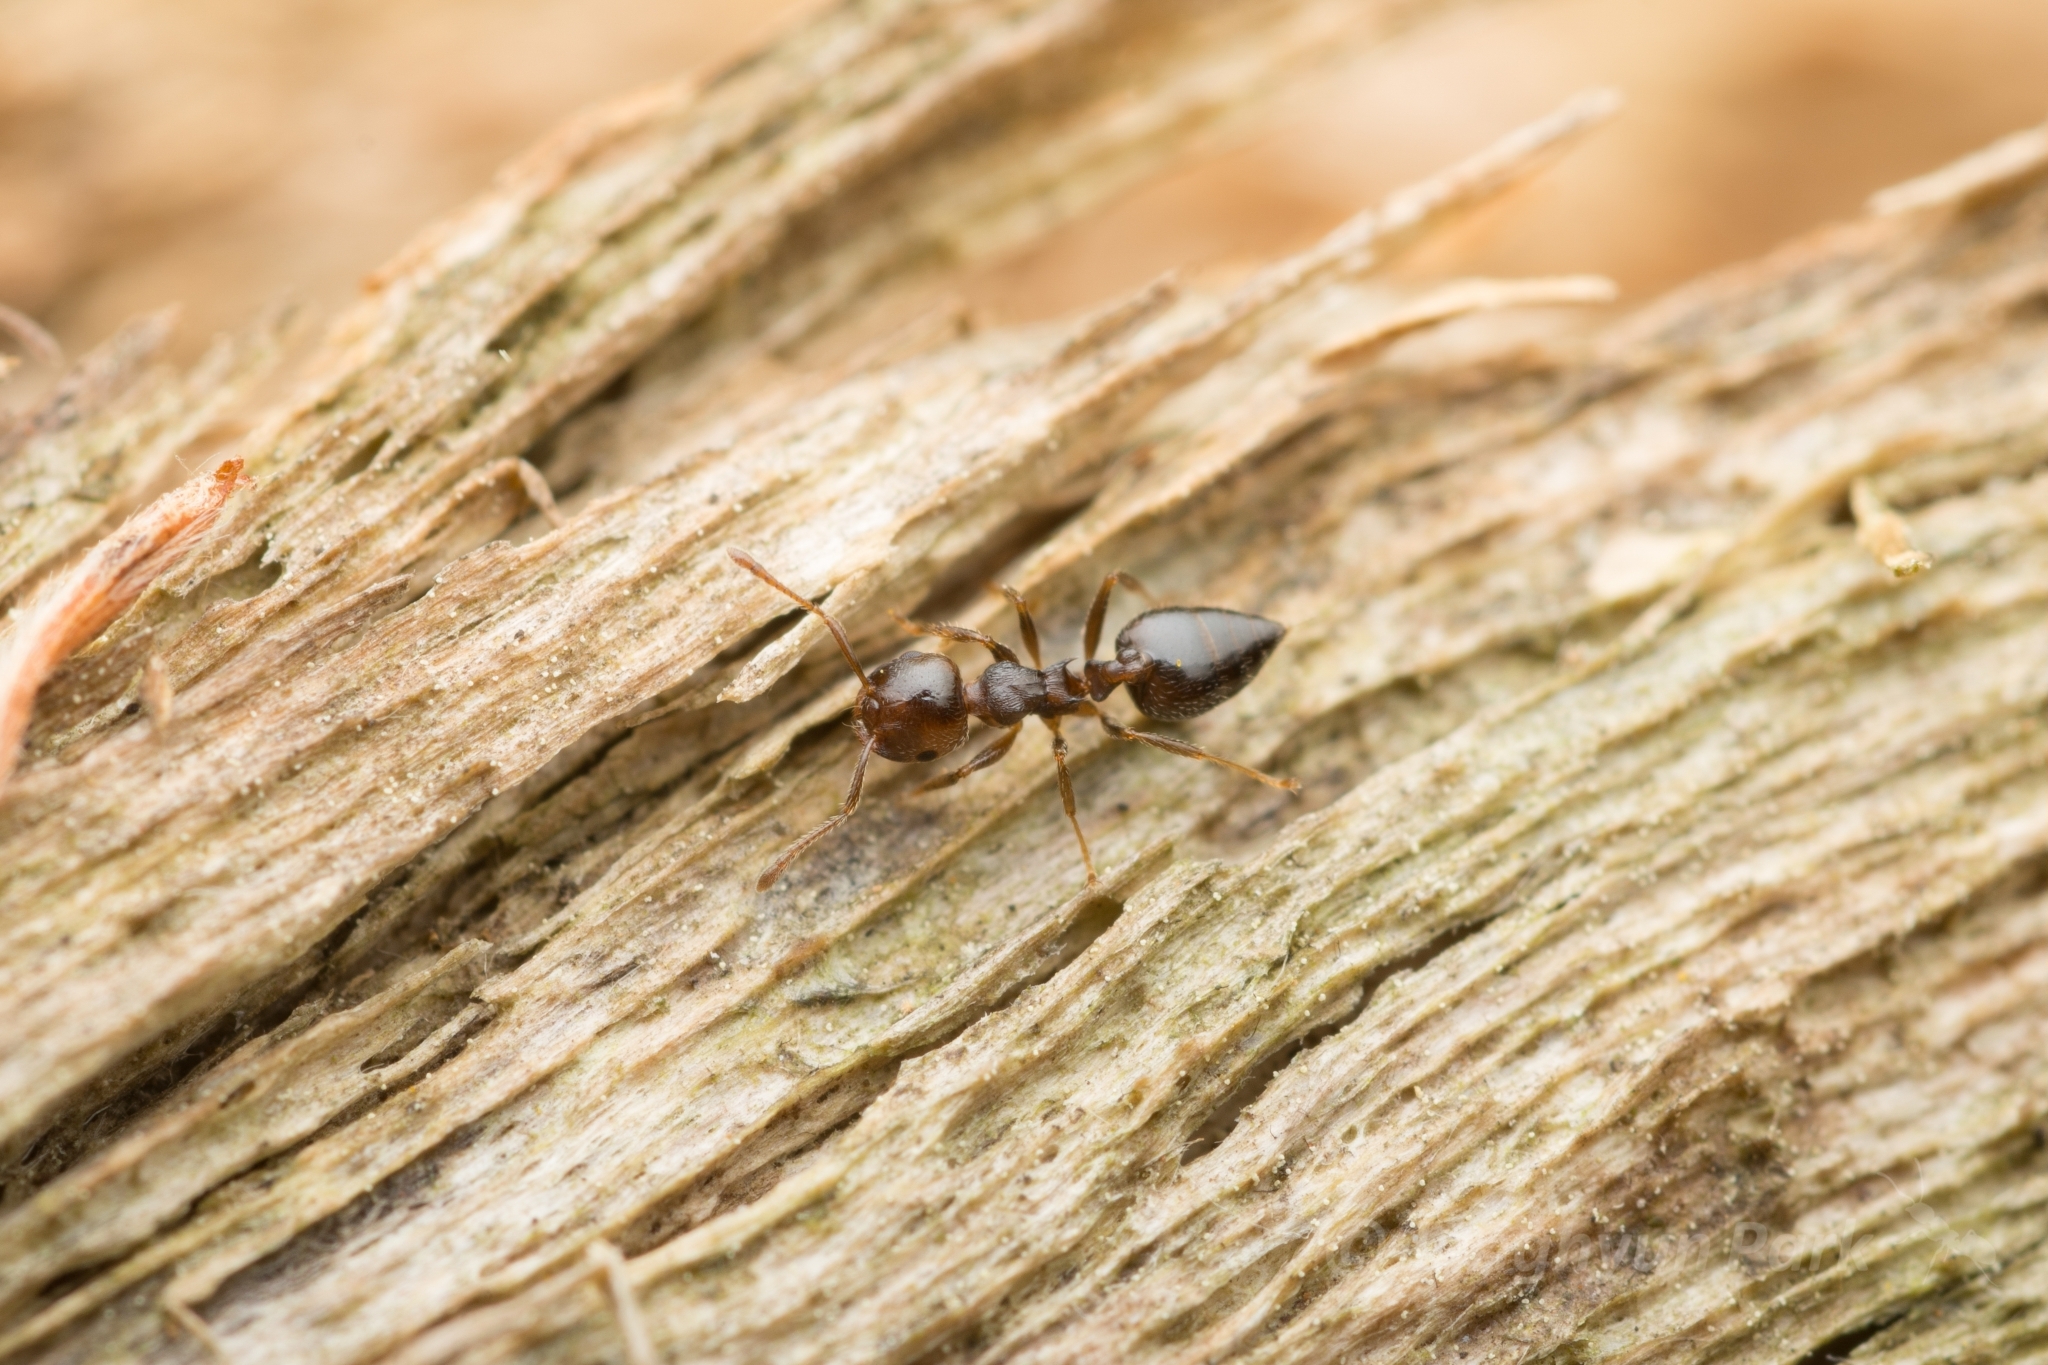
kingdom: Animalia
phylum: Arthropoda
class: Insecta
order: Hymenoptera
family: Formicidae
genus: Crematogaster
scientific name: Crematogaster teranishii
